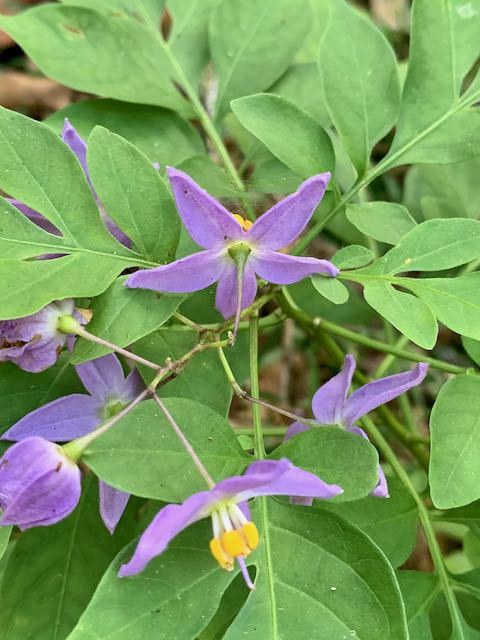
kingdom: Plantae
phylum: Tracheophyta
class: Magnoliopsida
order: Solanales
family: Solanaceae
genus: Solanum
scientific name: Solanum seaforthianum
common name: Brazilian nightshade
